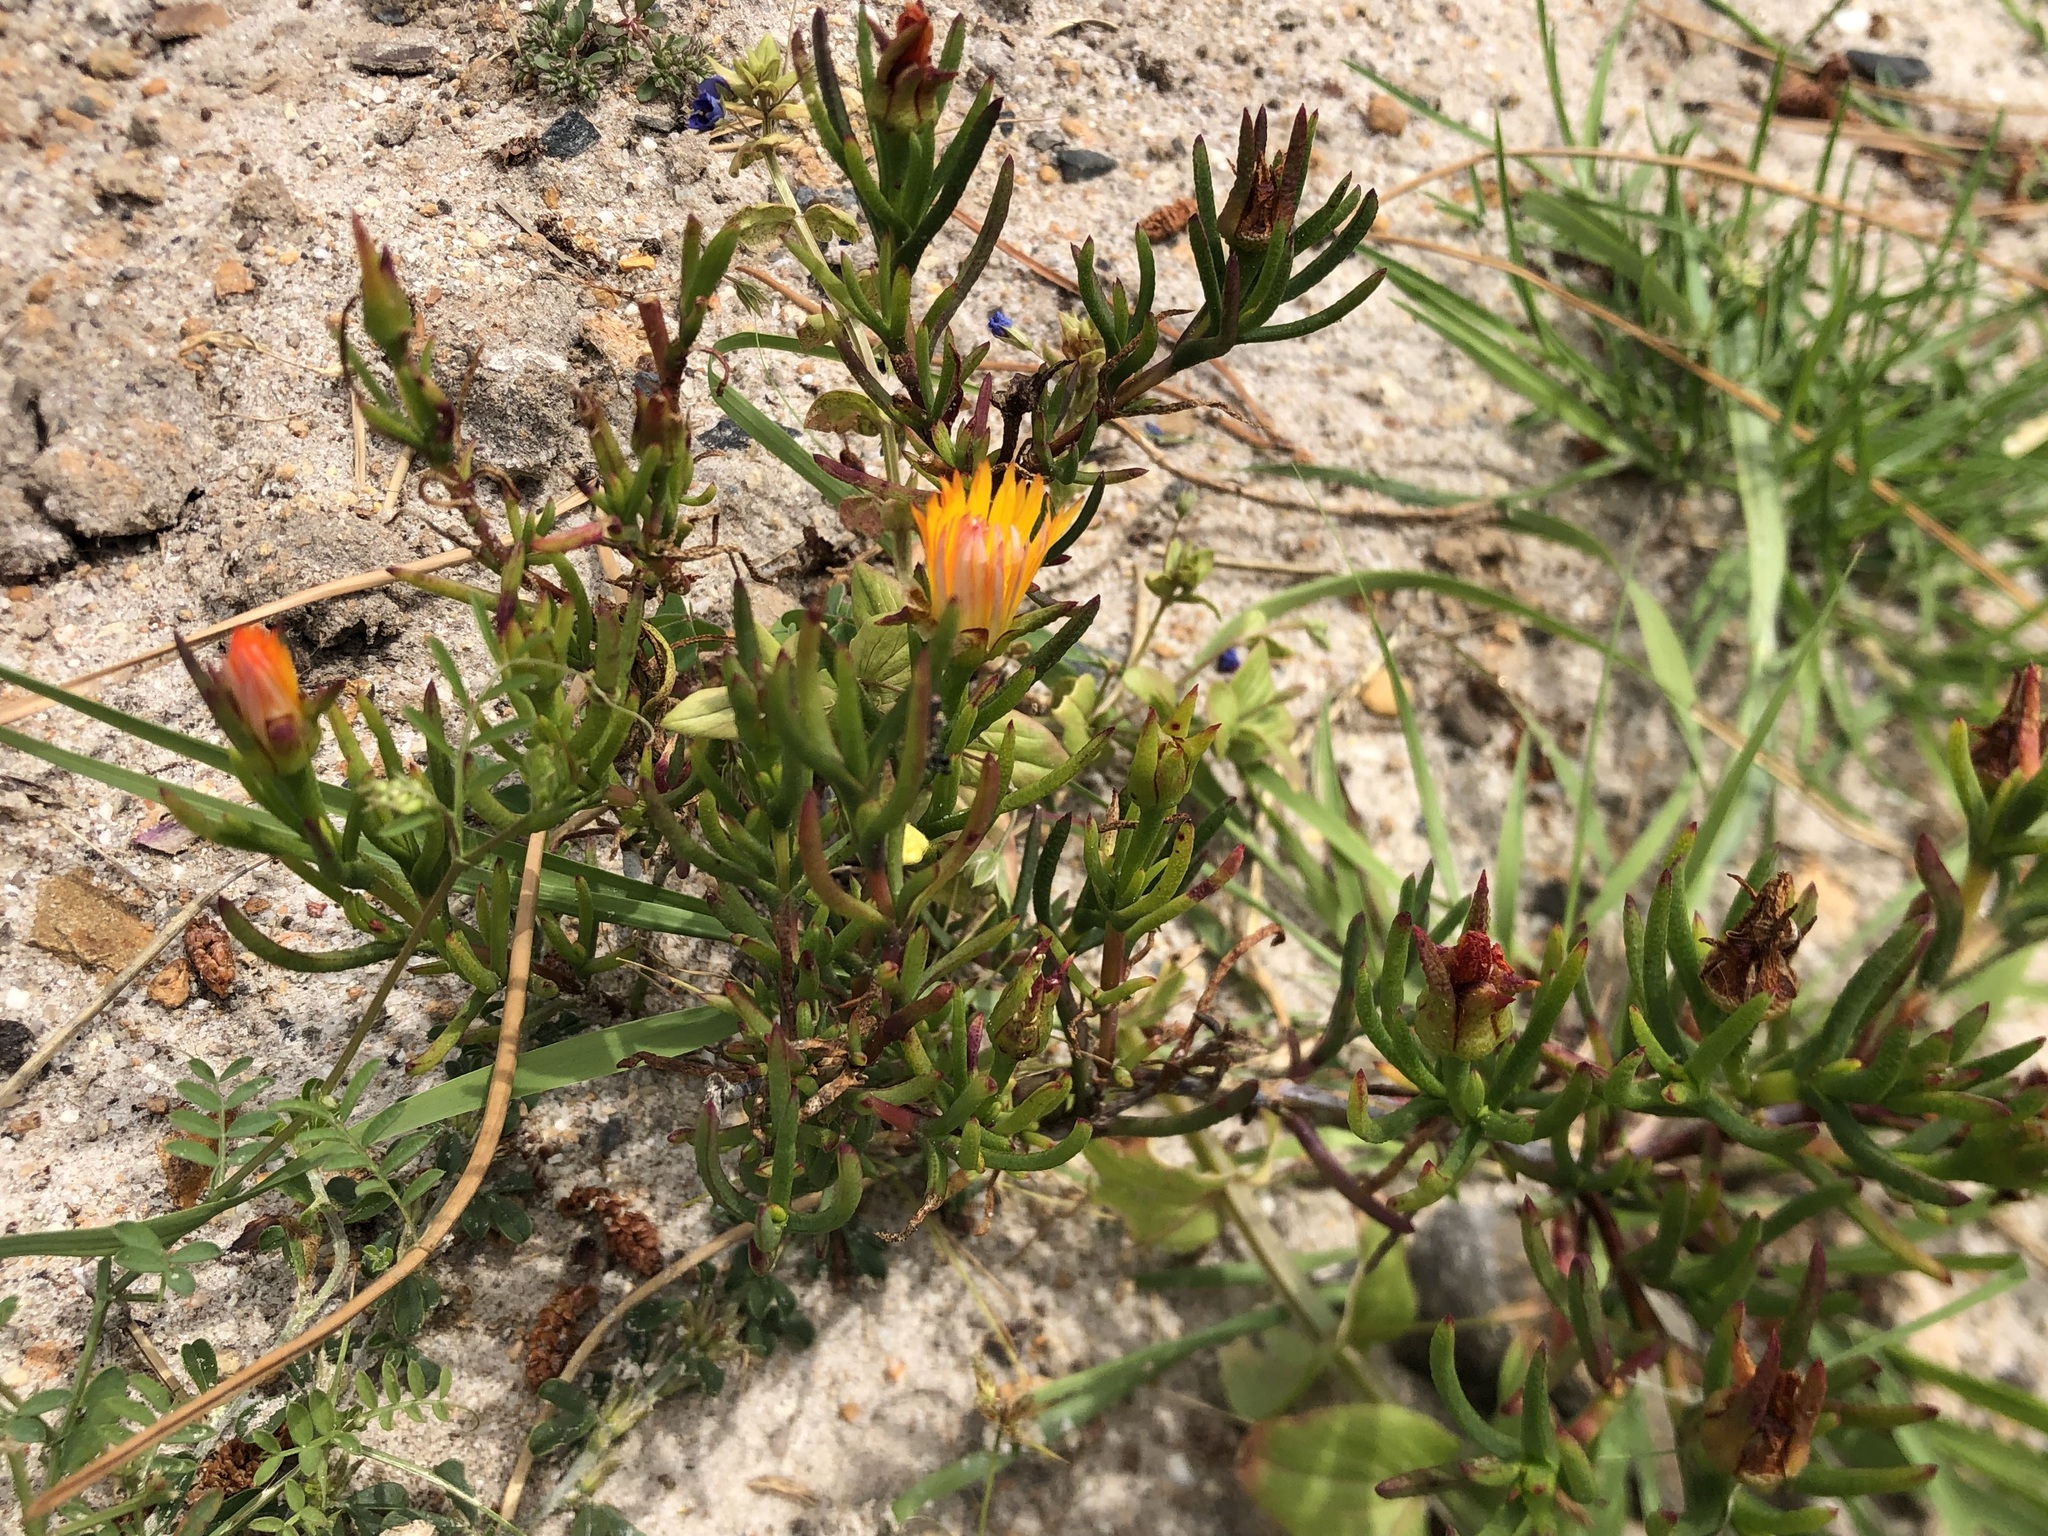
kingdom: Plantae
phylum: Tracheophyta
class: Magnoliopsida
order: Caryophyllales
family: Aizoaceae
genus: Lampranthus
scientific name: Lampranthus bicolor
